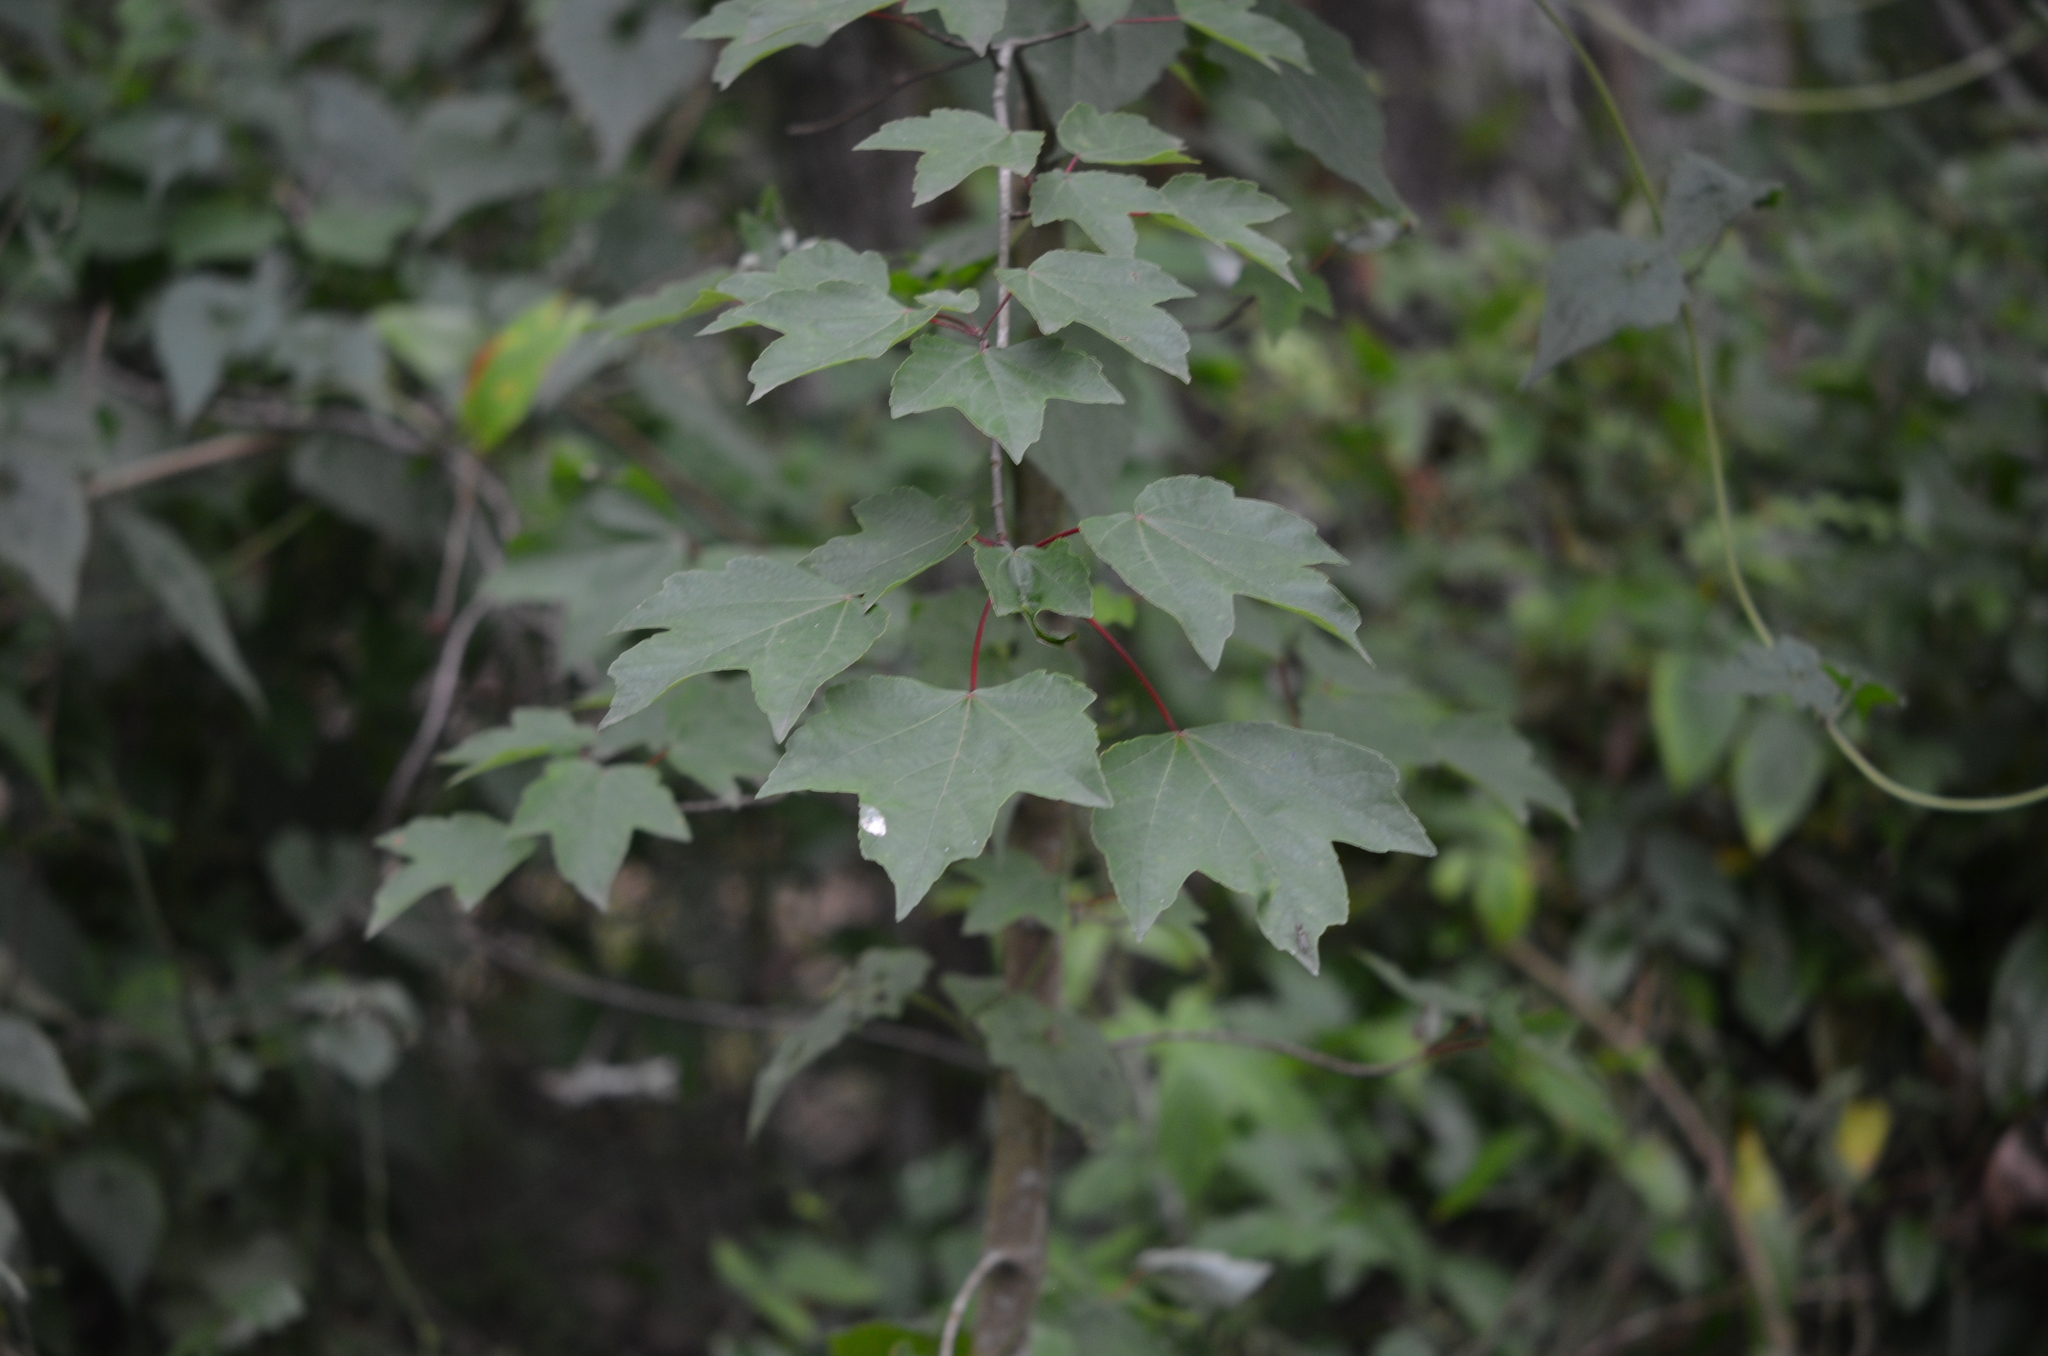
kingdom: Plantae
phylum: Tracheophyta
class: Magnoliopsida
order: Sapindales
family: Sapindaceae
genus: Acer
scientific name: Acer rubrum
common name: Red maple
